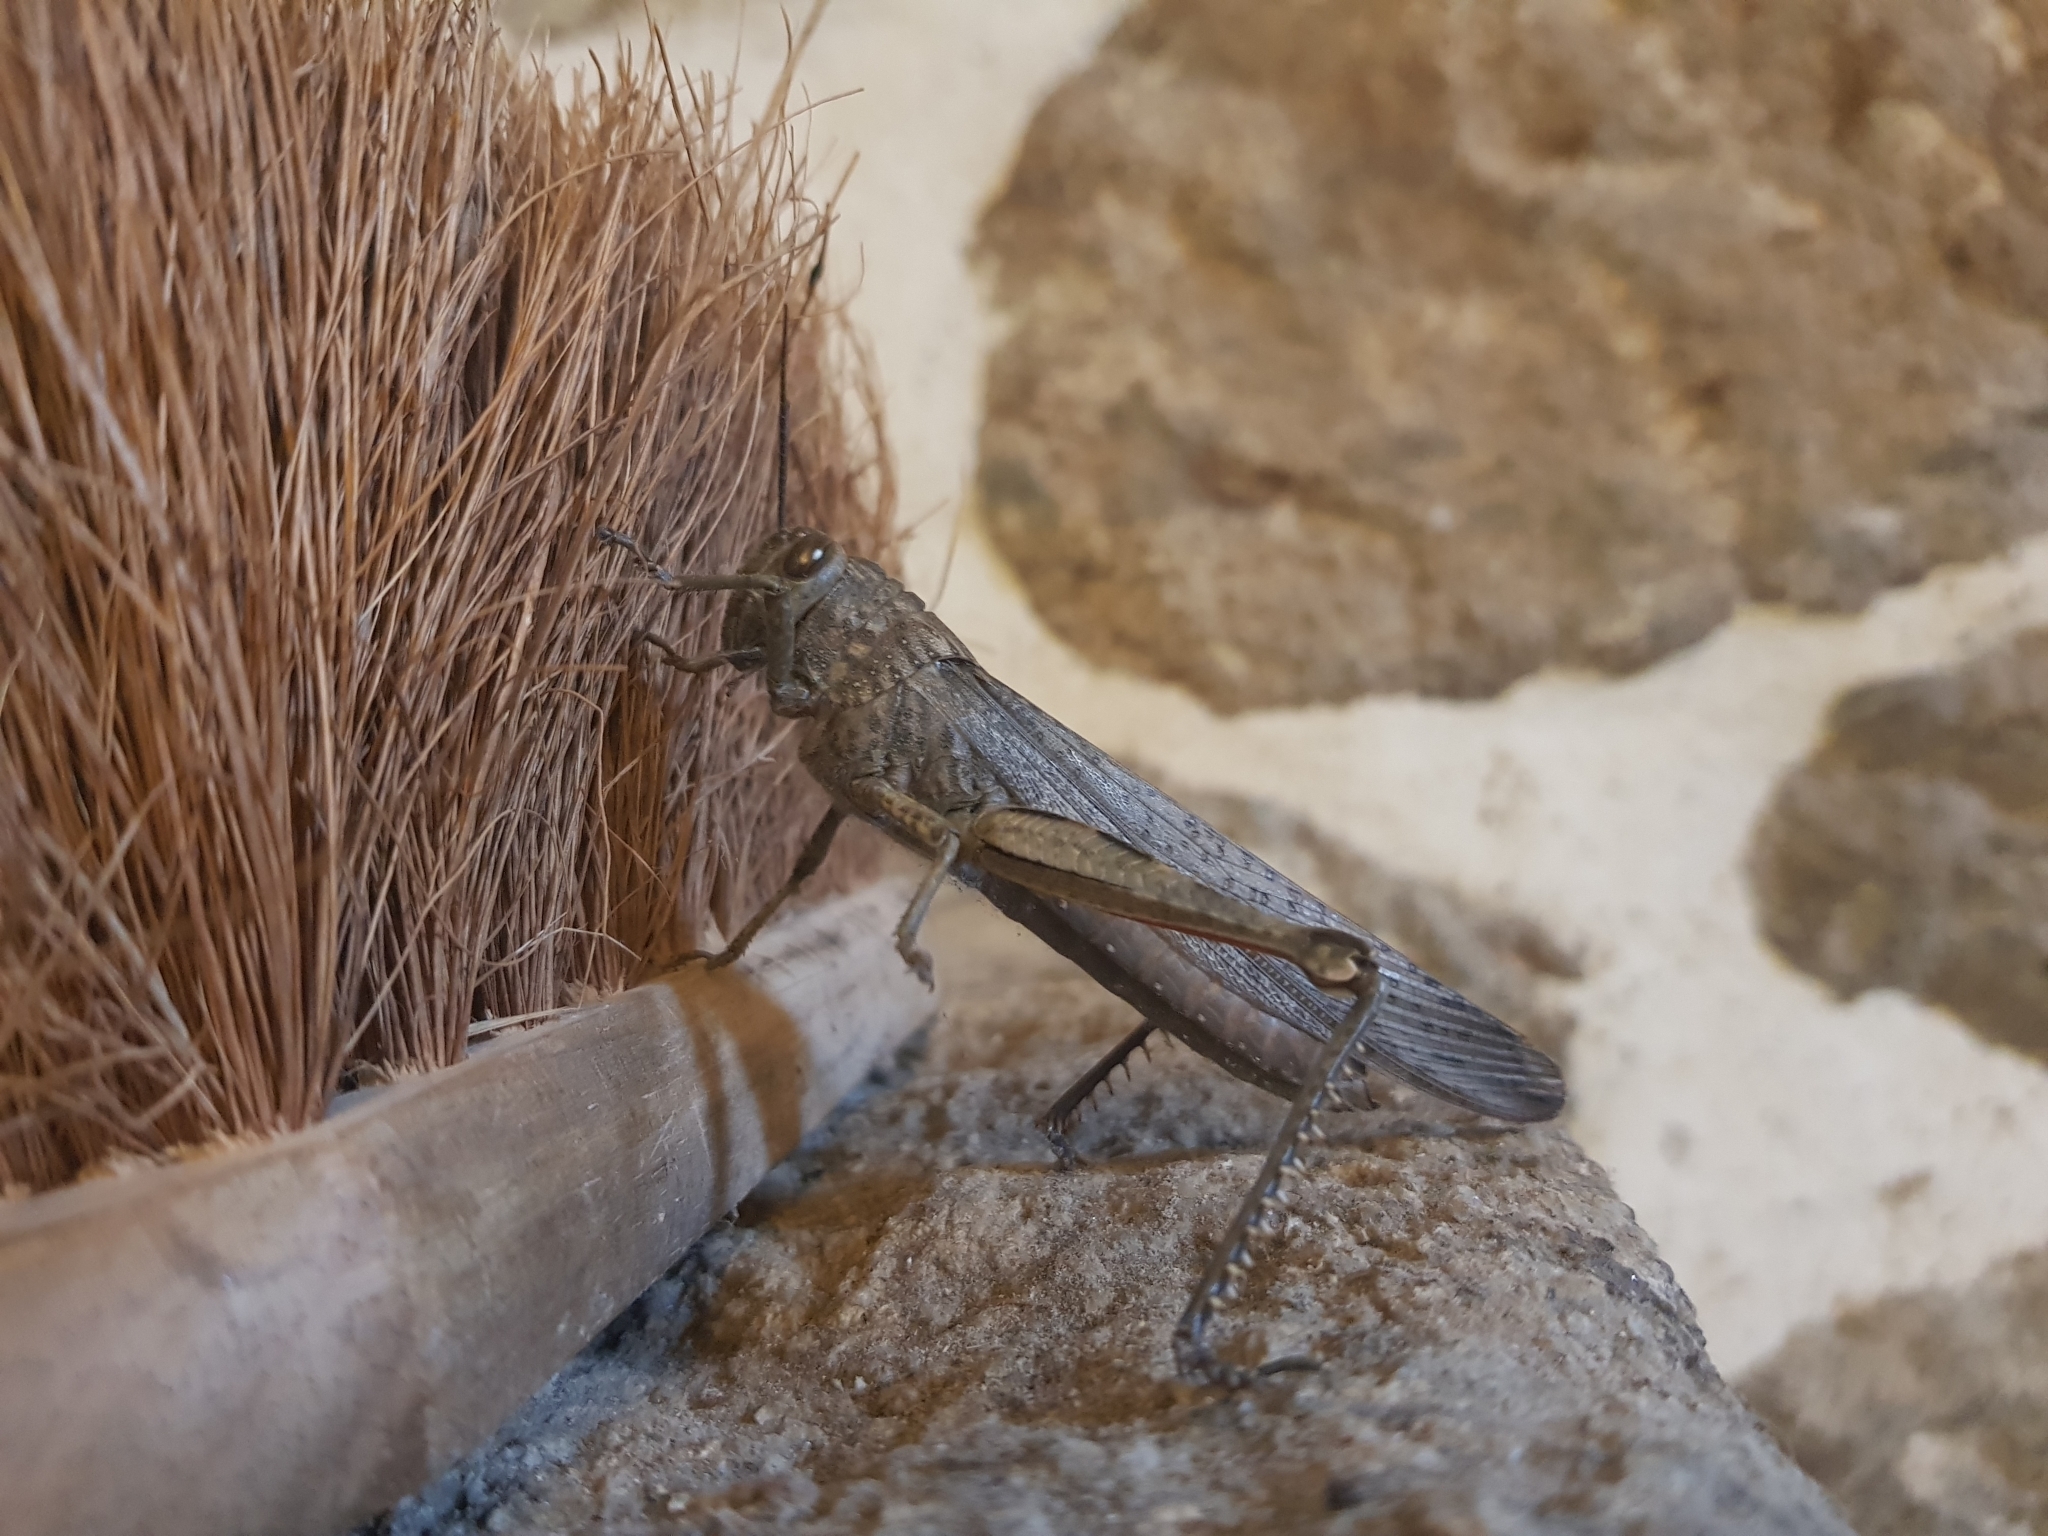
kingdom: Animalia
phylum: Arthropoda
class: Insecta
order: Orthoptera
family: Acrididae
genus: Anacridium
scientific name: Anacridium aegyptium
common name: Egyptian grasshopper
